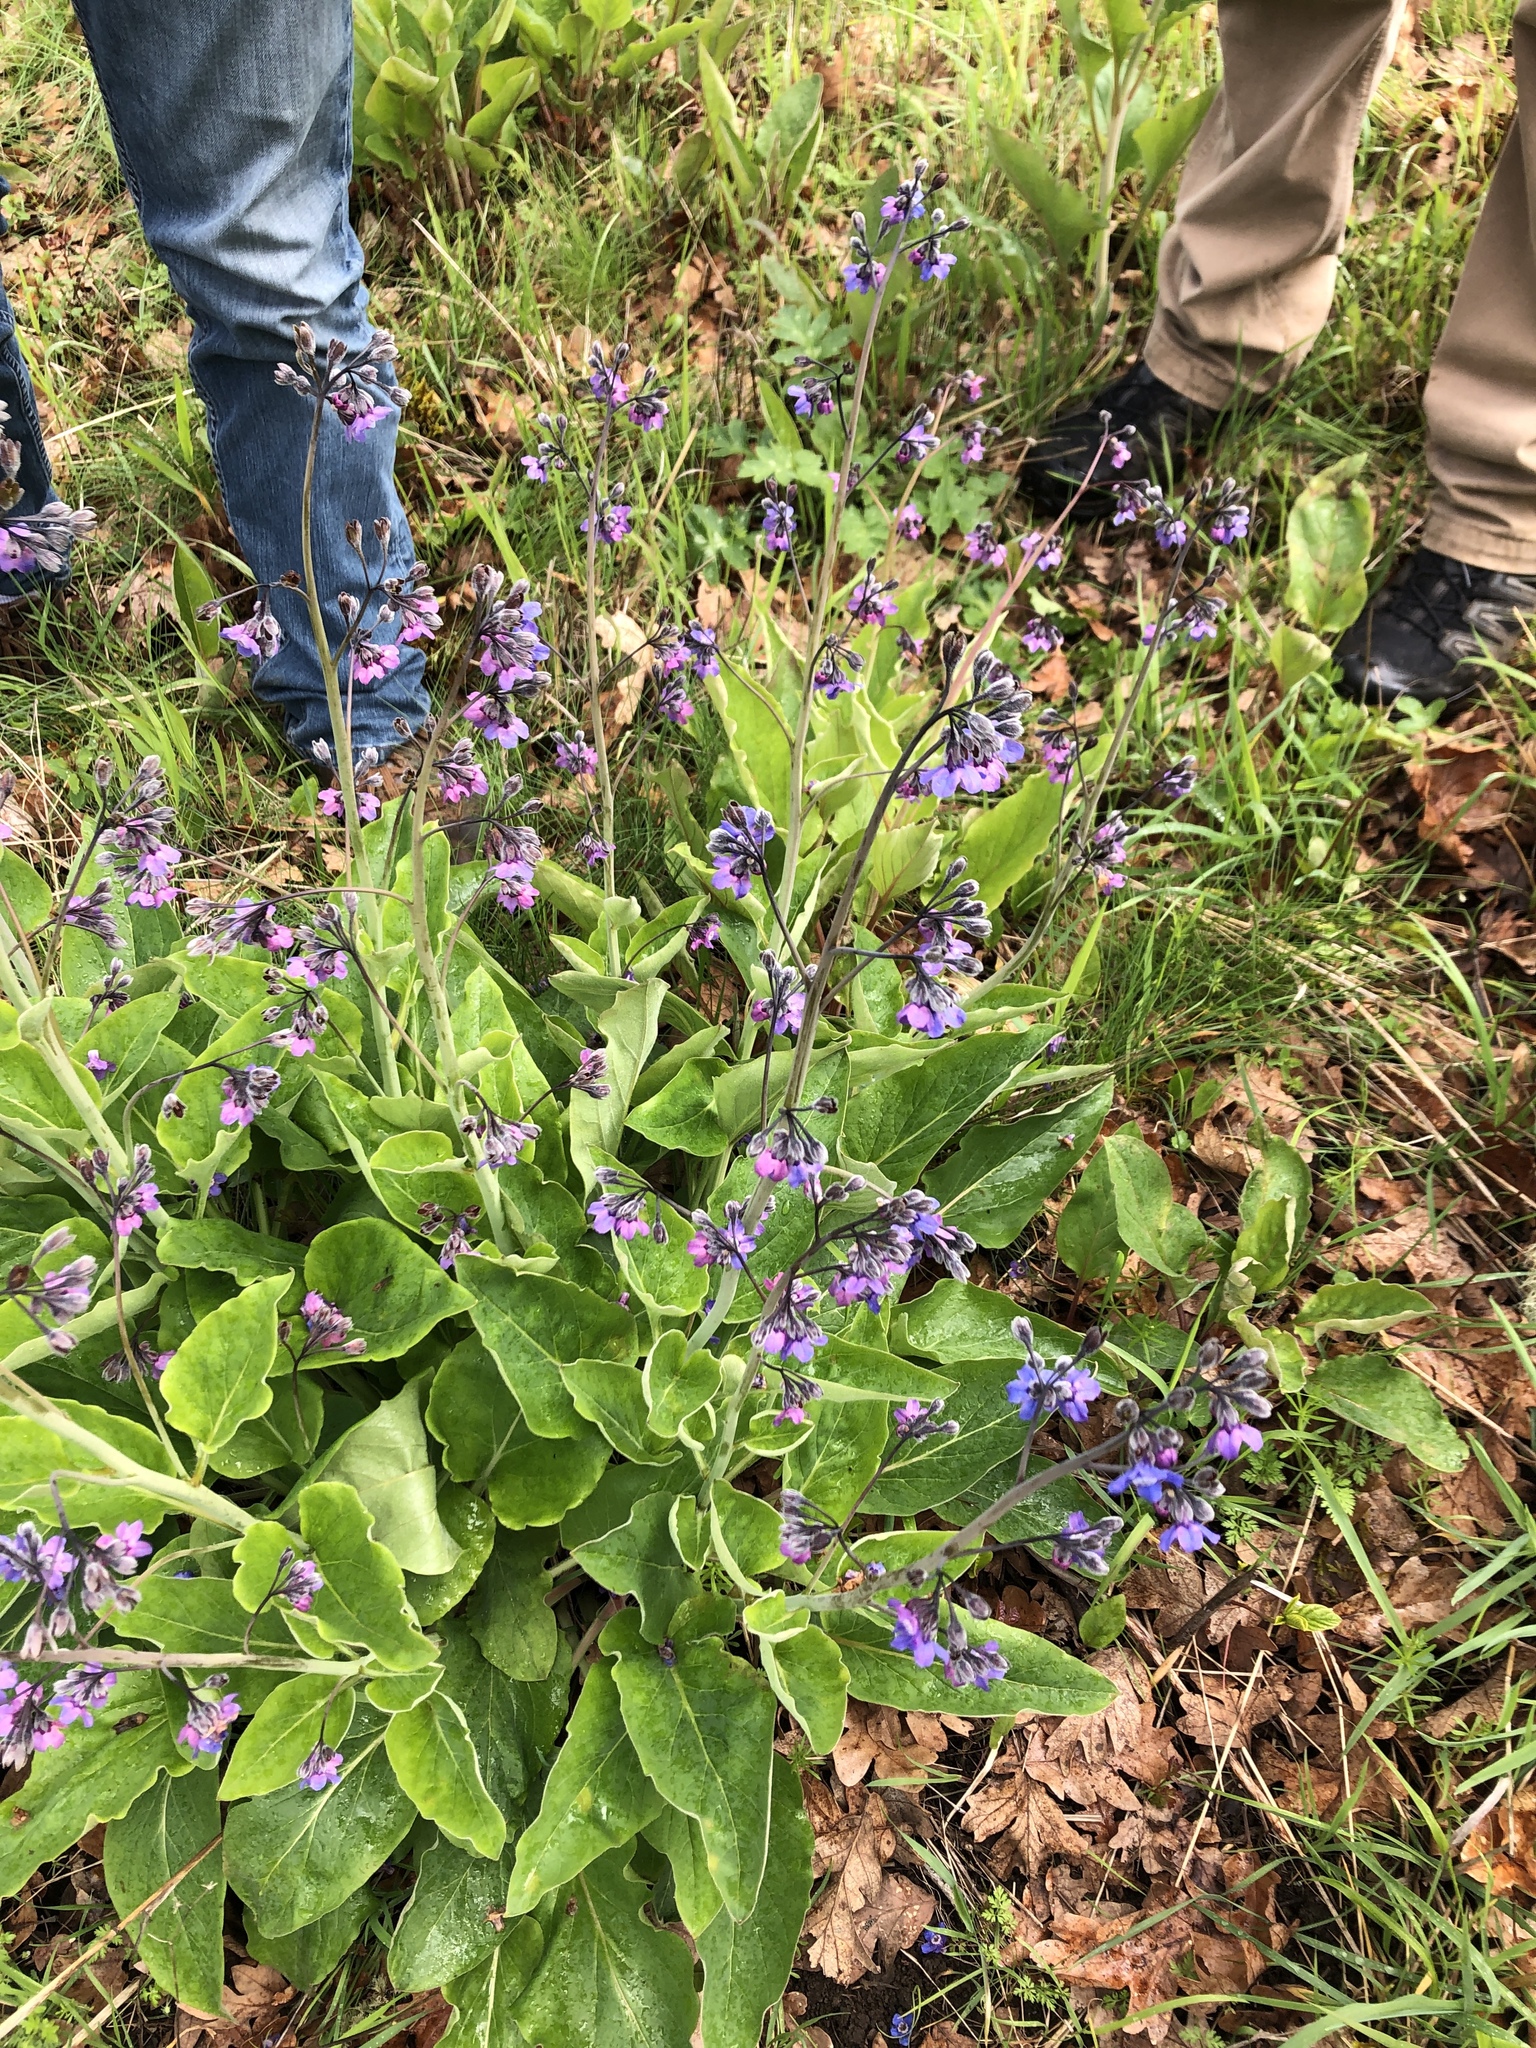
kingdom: Plantae
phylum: Tracheophyta
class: Magnoliopsida
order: Boraginales
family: Boraginaceae
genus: Adelinia
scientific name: Adelinia grande
